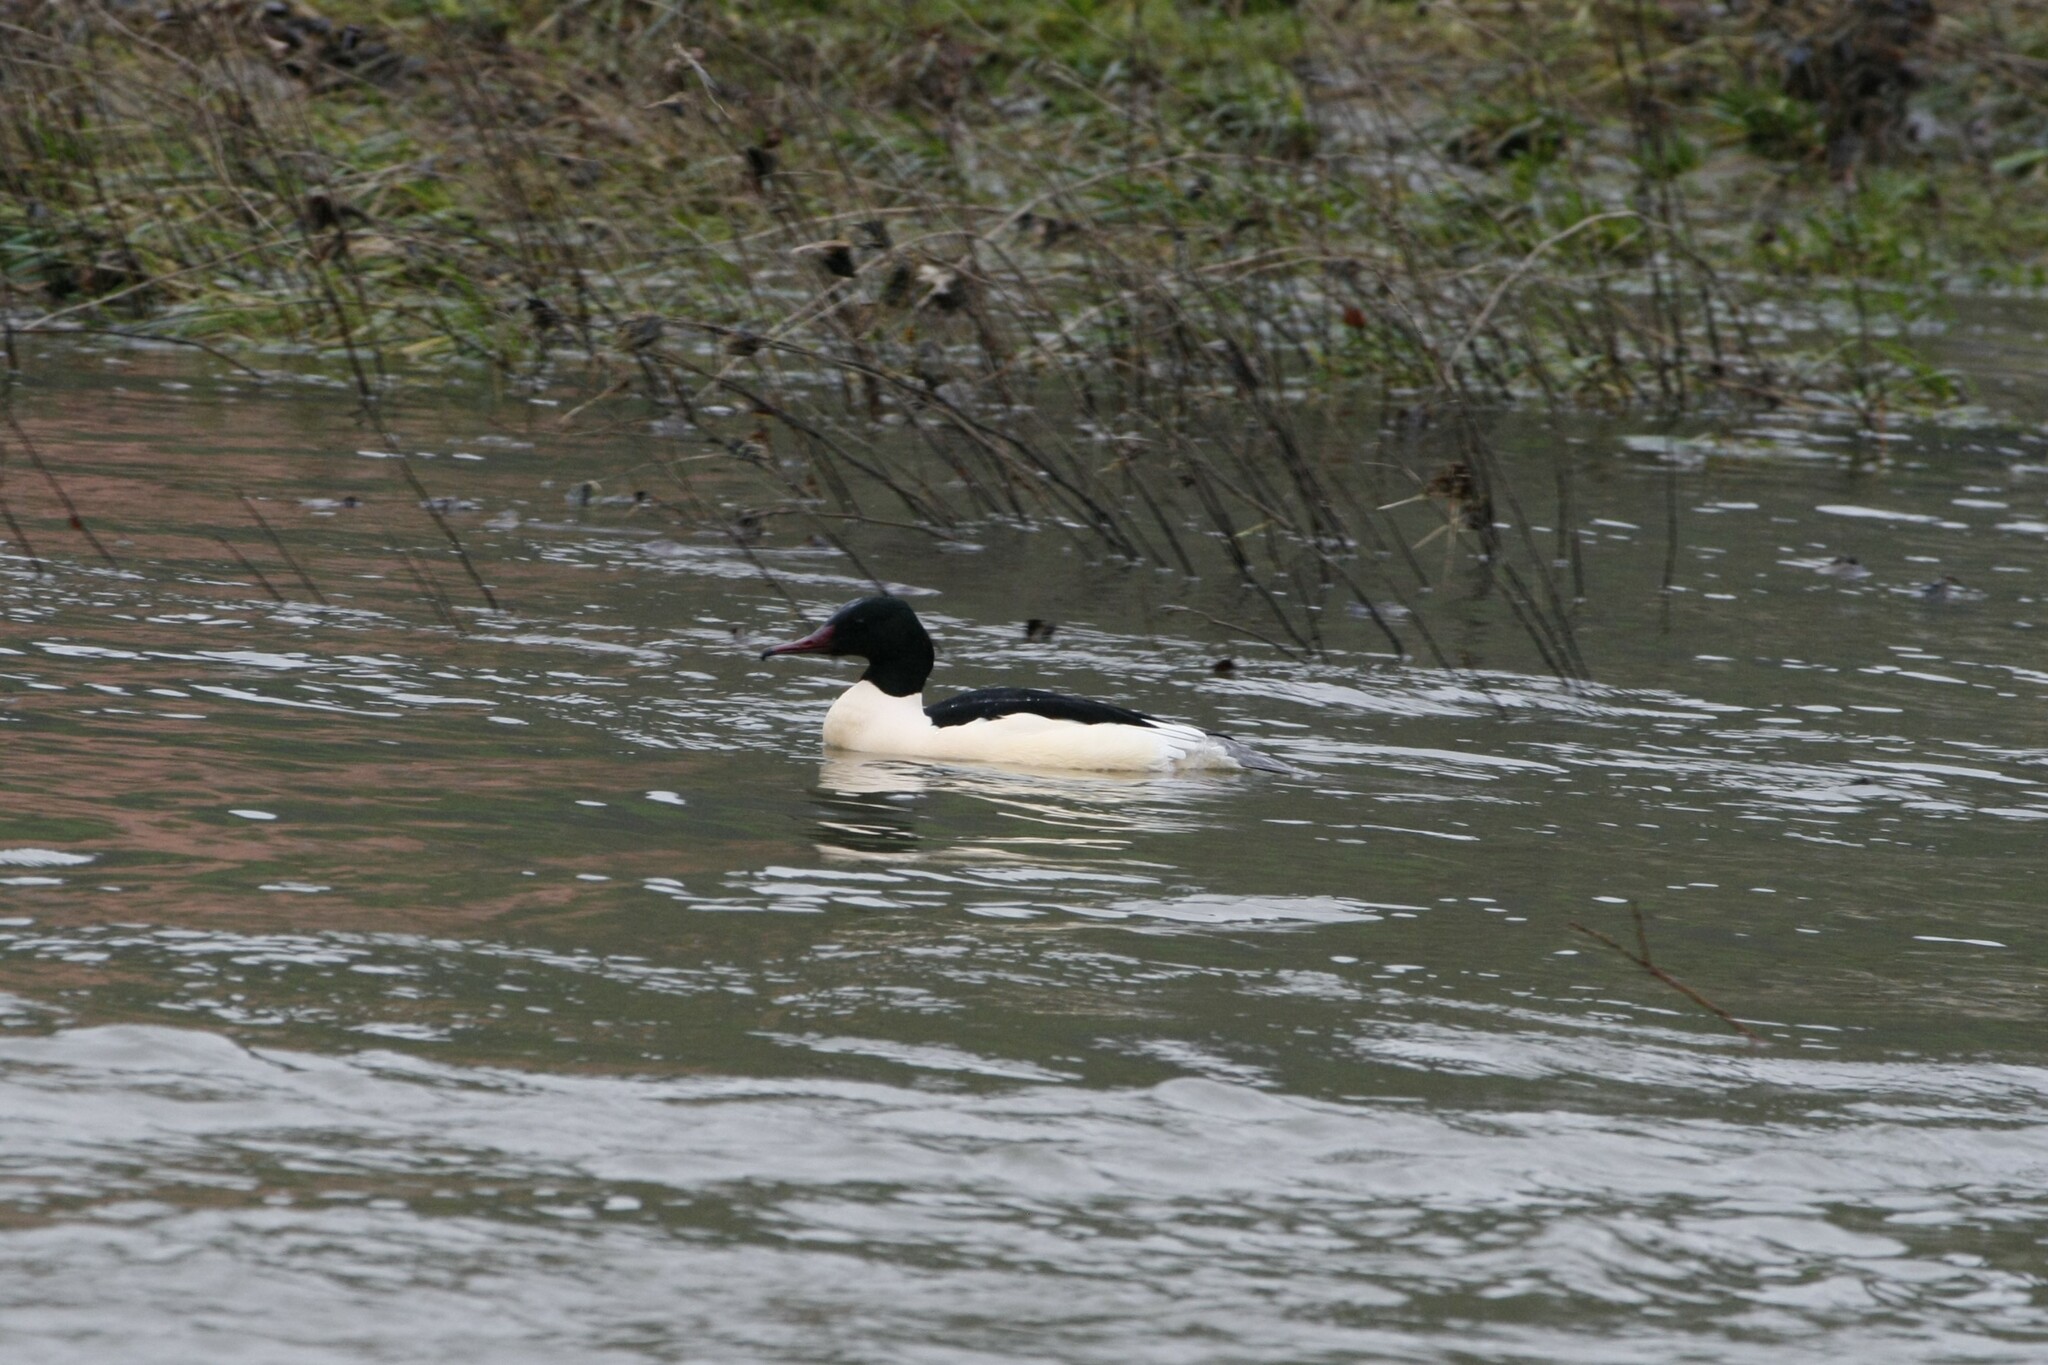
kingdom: Animalia
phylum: Chordata
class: Aves
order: Anseriformes
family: Anatidae
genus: Mergus
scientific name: Mergus merganser
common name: Common merganser
